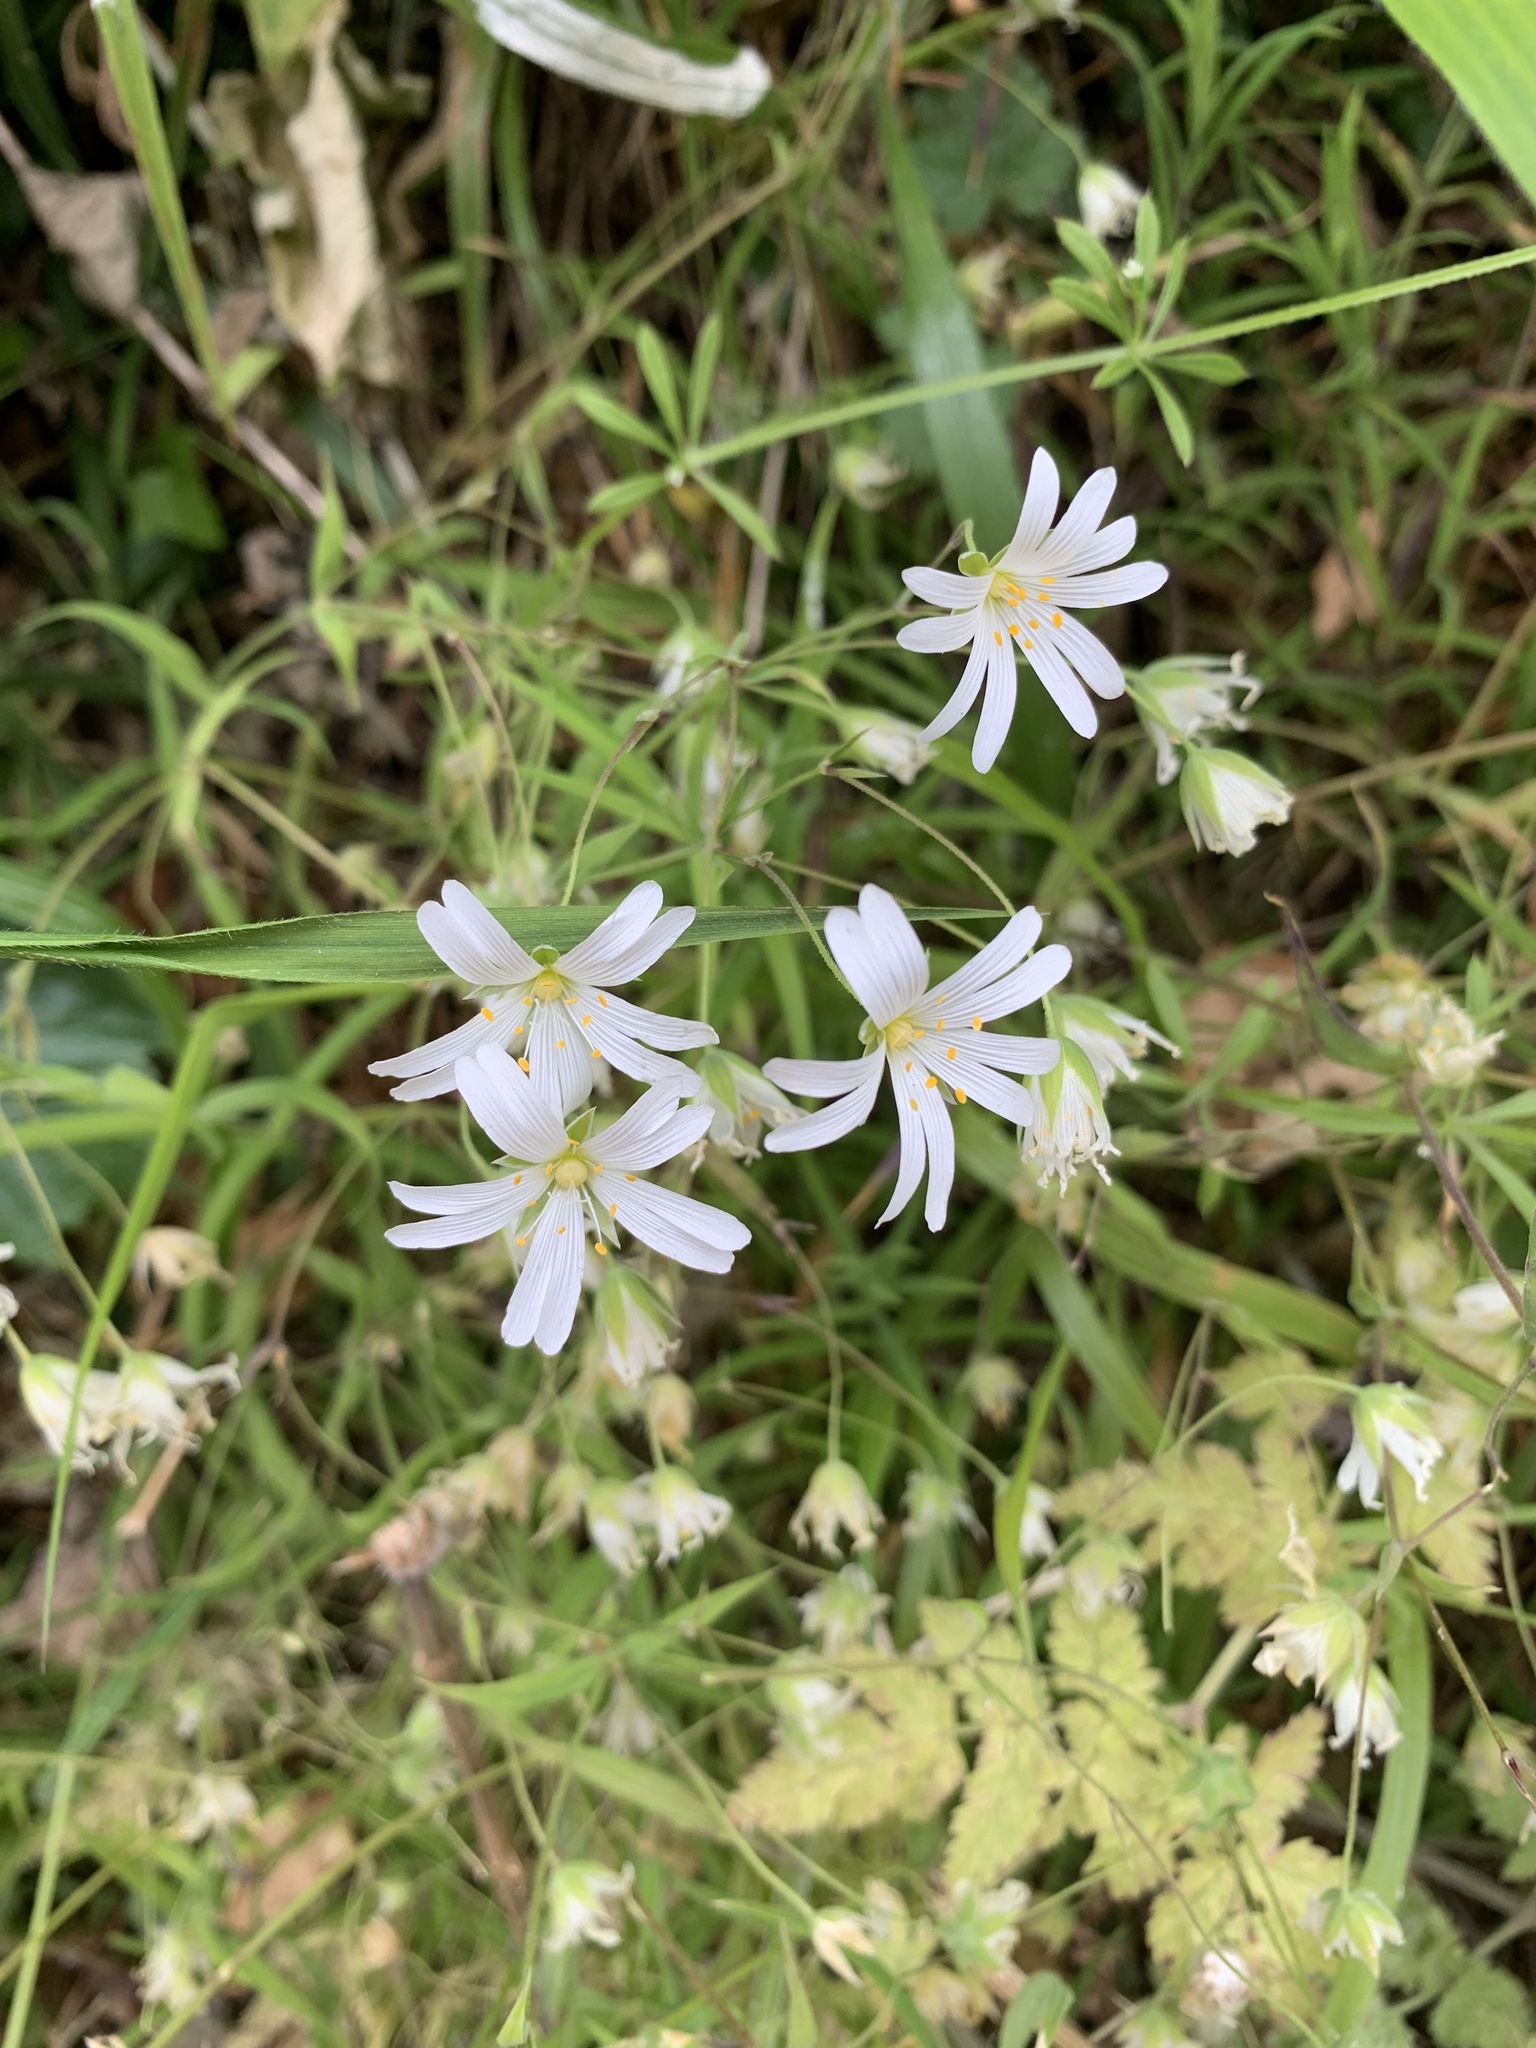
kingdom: Plantae
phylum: Tracheophyta
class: Magnoliopsida
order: Caryophyllales
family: Caryophyllaceae
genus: Rabelera
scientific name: Rabelera holostea
